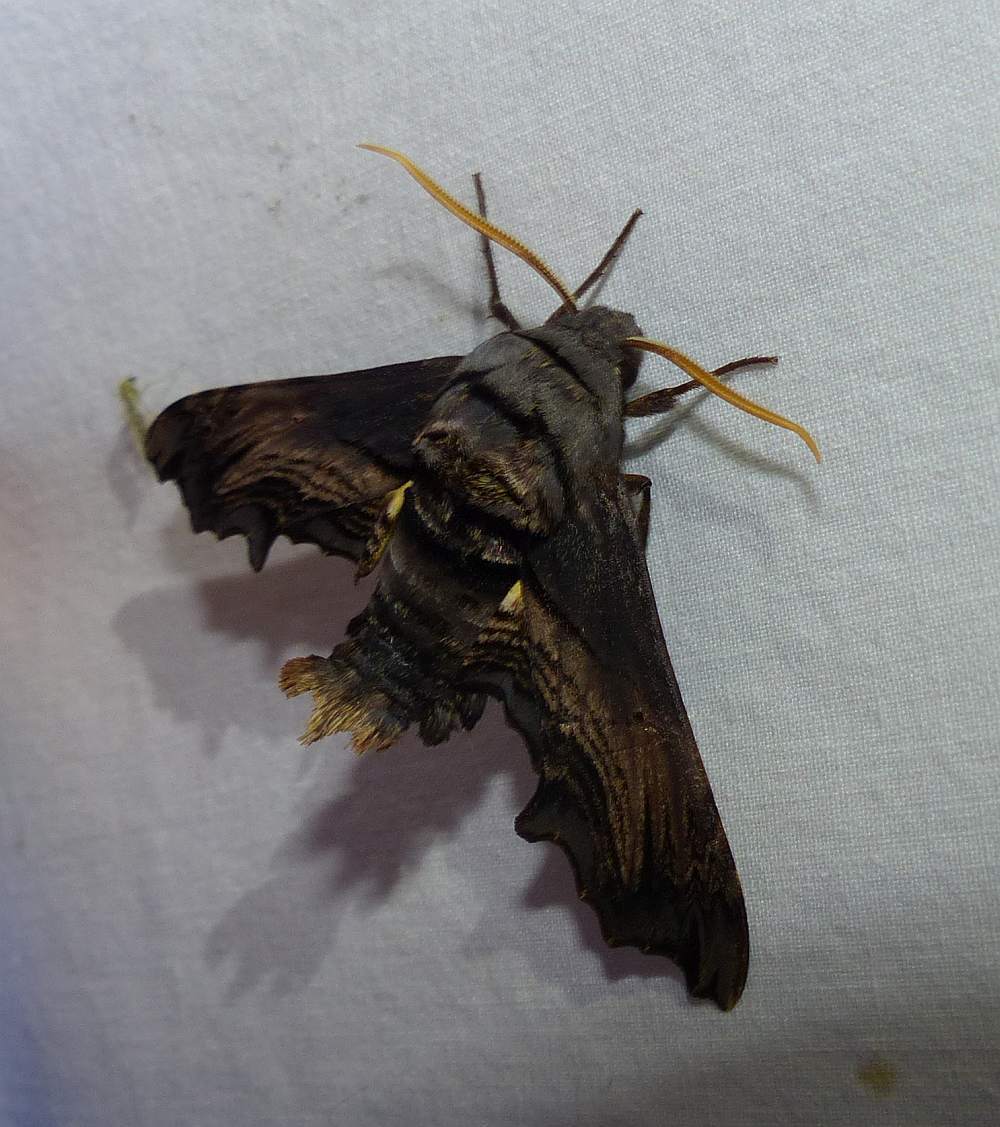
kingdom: Animalia
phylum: Arthropoda
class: Insecta
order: Lepidoptera
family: Sphingidae
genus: Sphecodina
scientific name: Sphecodina abbottii
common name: Abbott's sphinx
